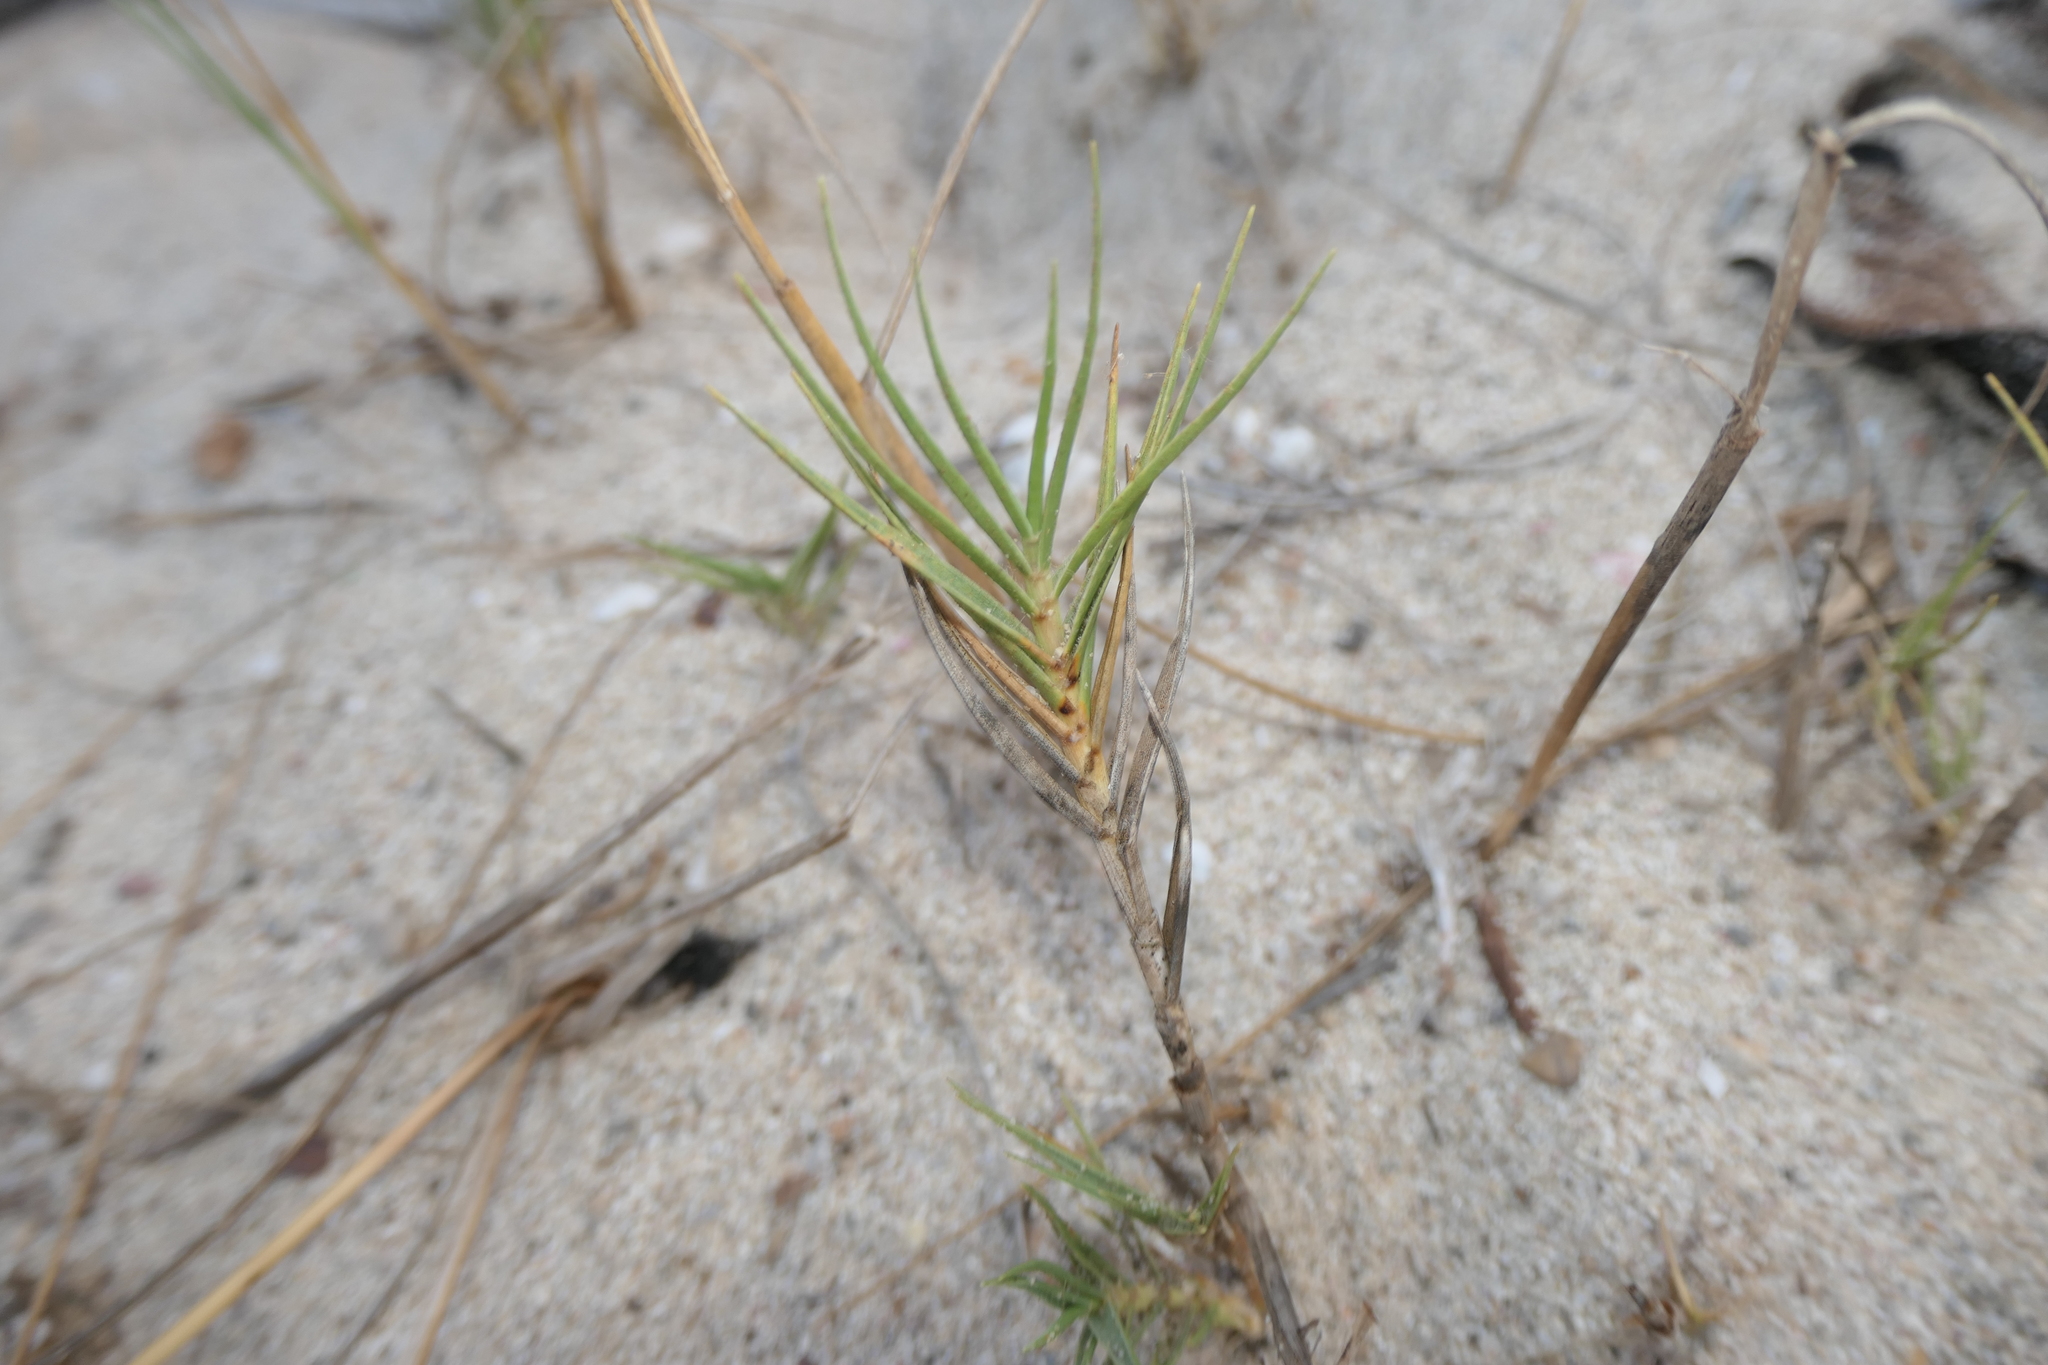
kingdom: Plantae
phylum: Tracheophyta
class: Liliopsida
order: Poales
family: Poaceae
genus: Sporobolus
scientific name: Sporobolus pungens
